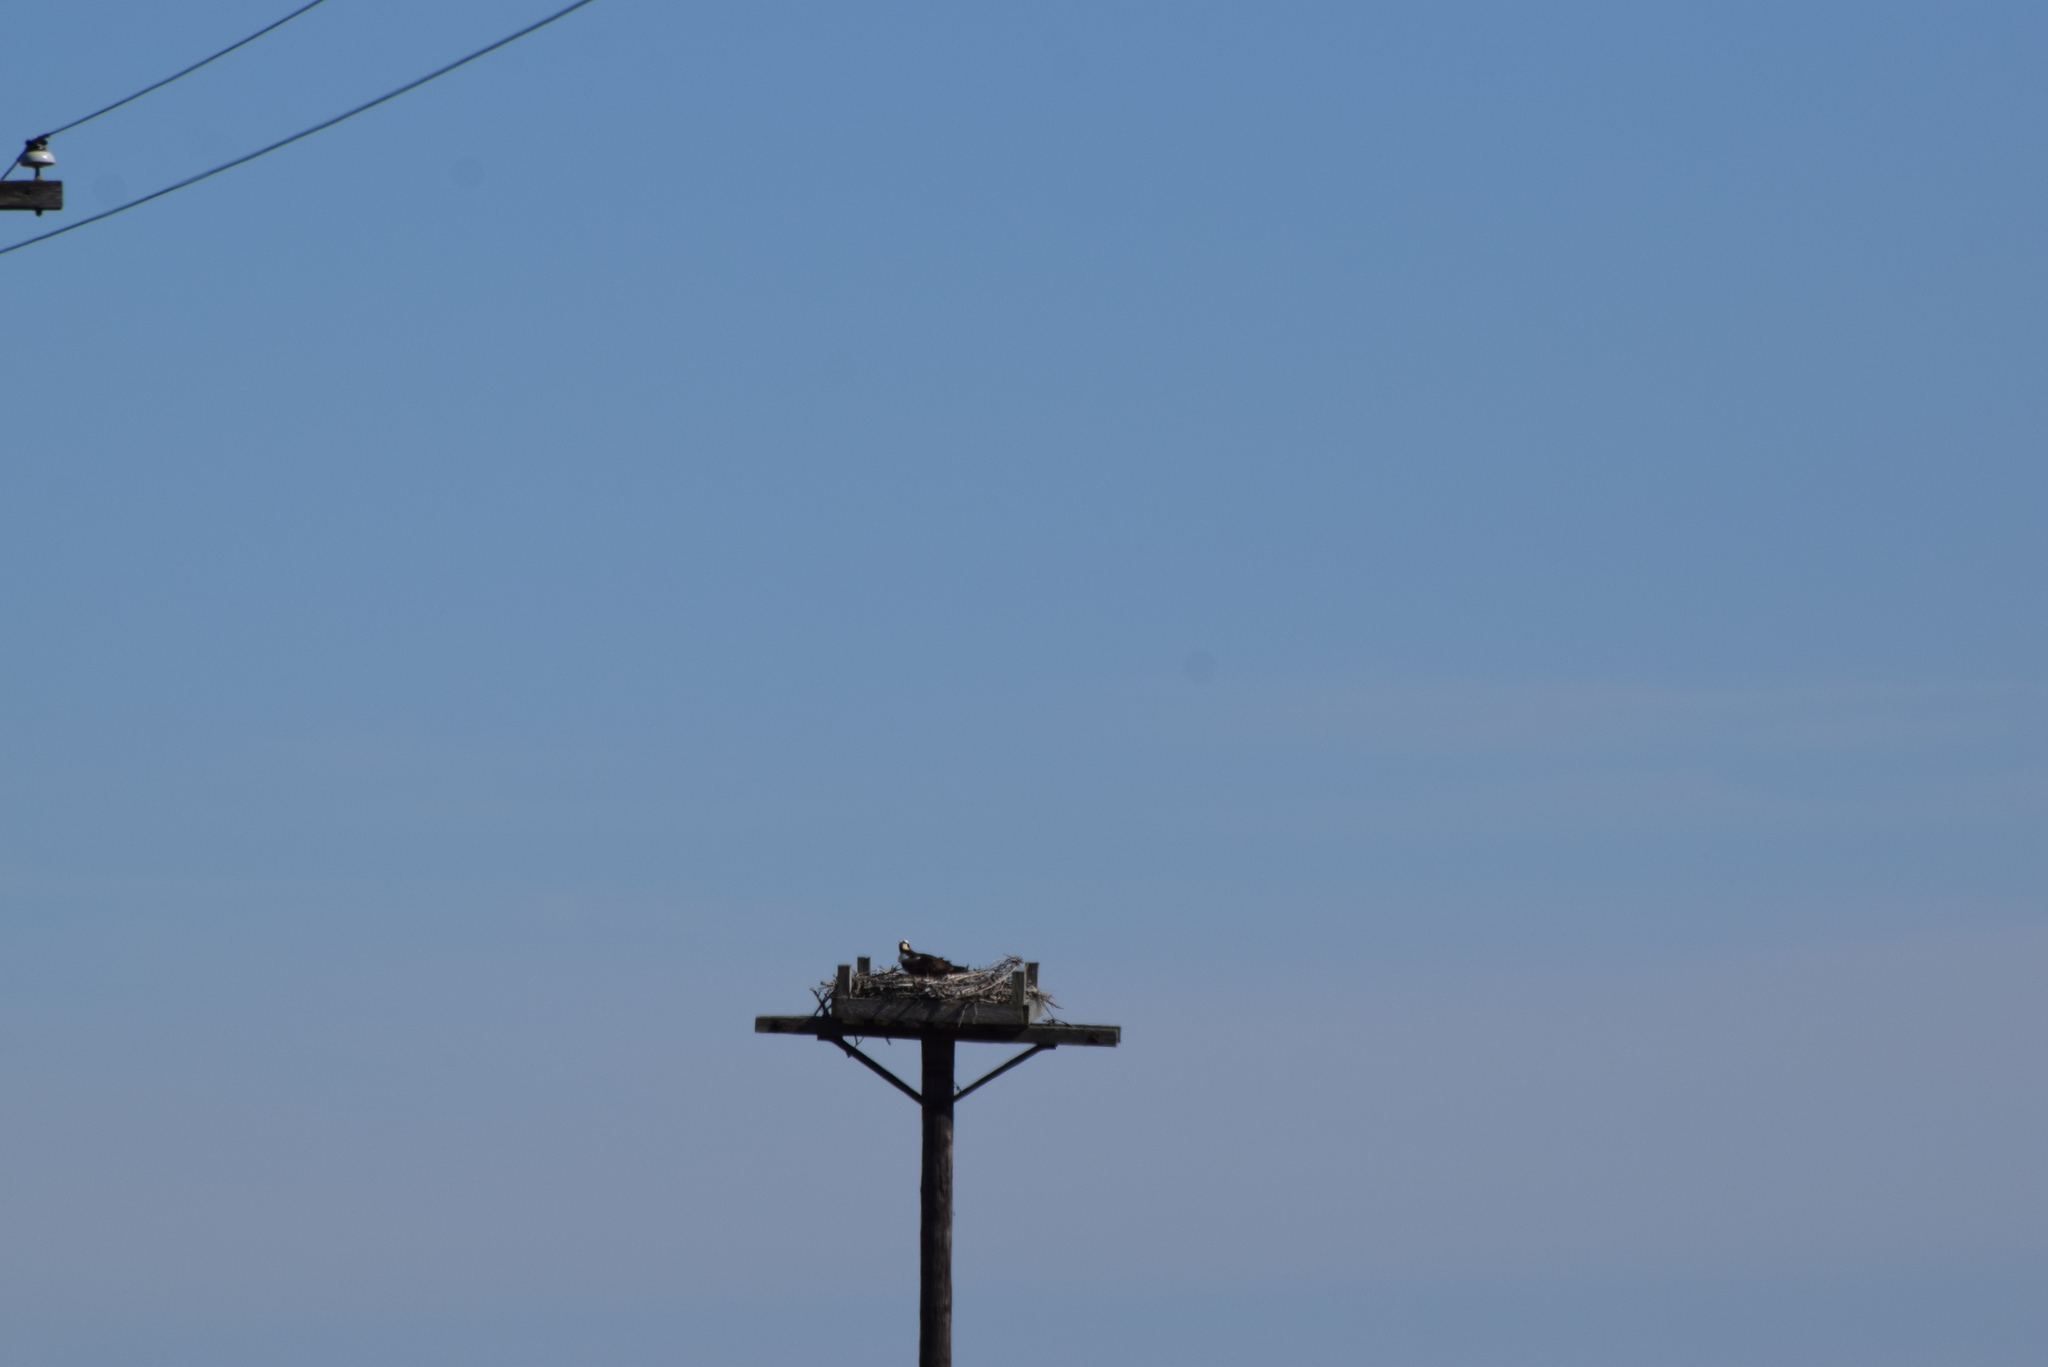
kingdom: Animalia
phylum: Chordata
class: Aves
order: Accipitriformes
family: Pandionidae
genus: Pandion
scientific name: Pandion haliaetus
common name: Osprey
